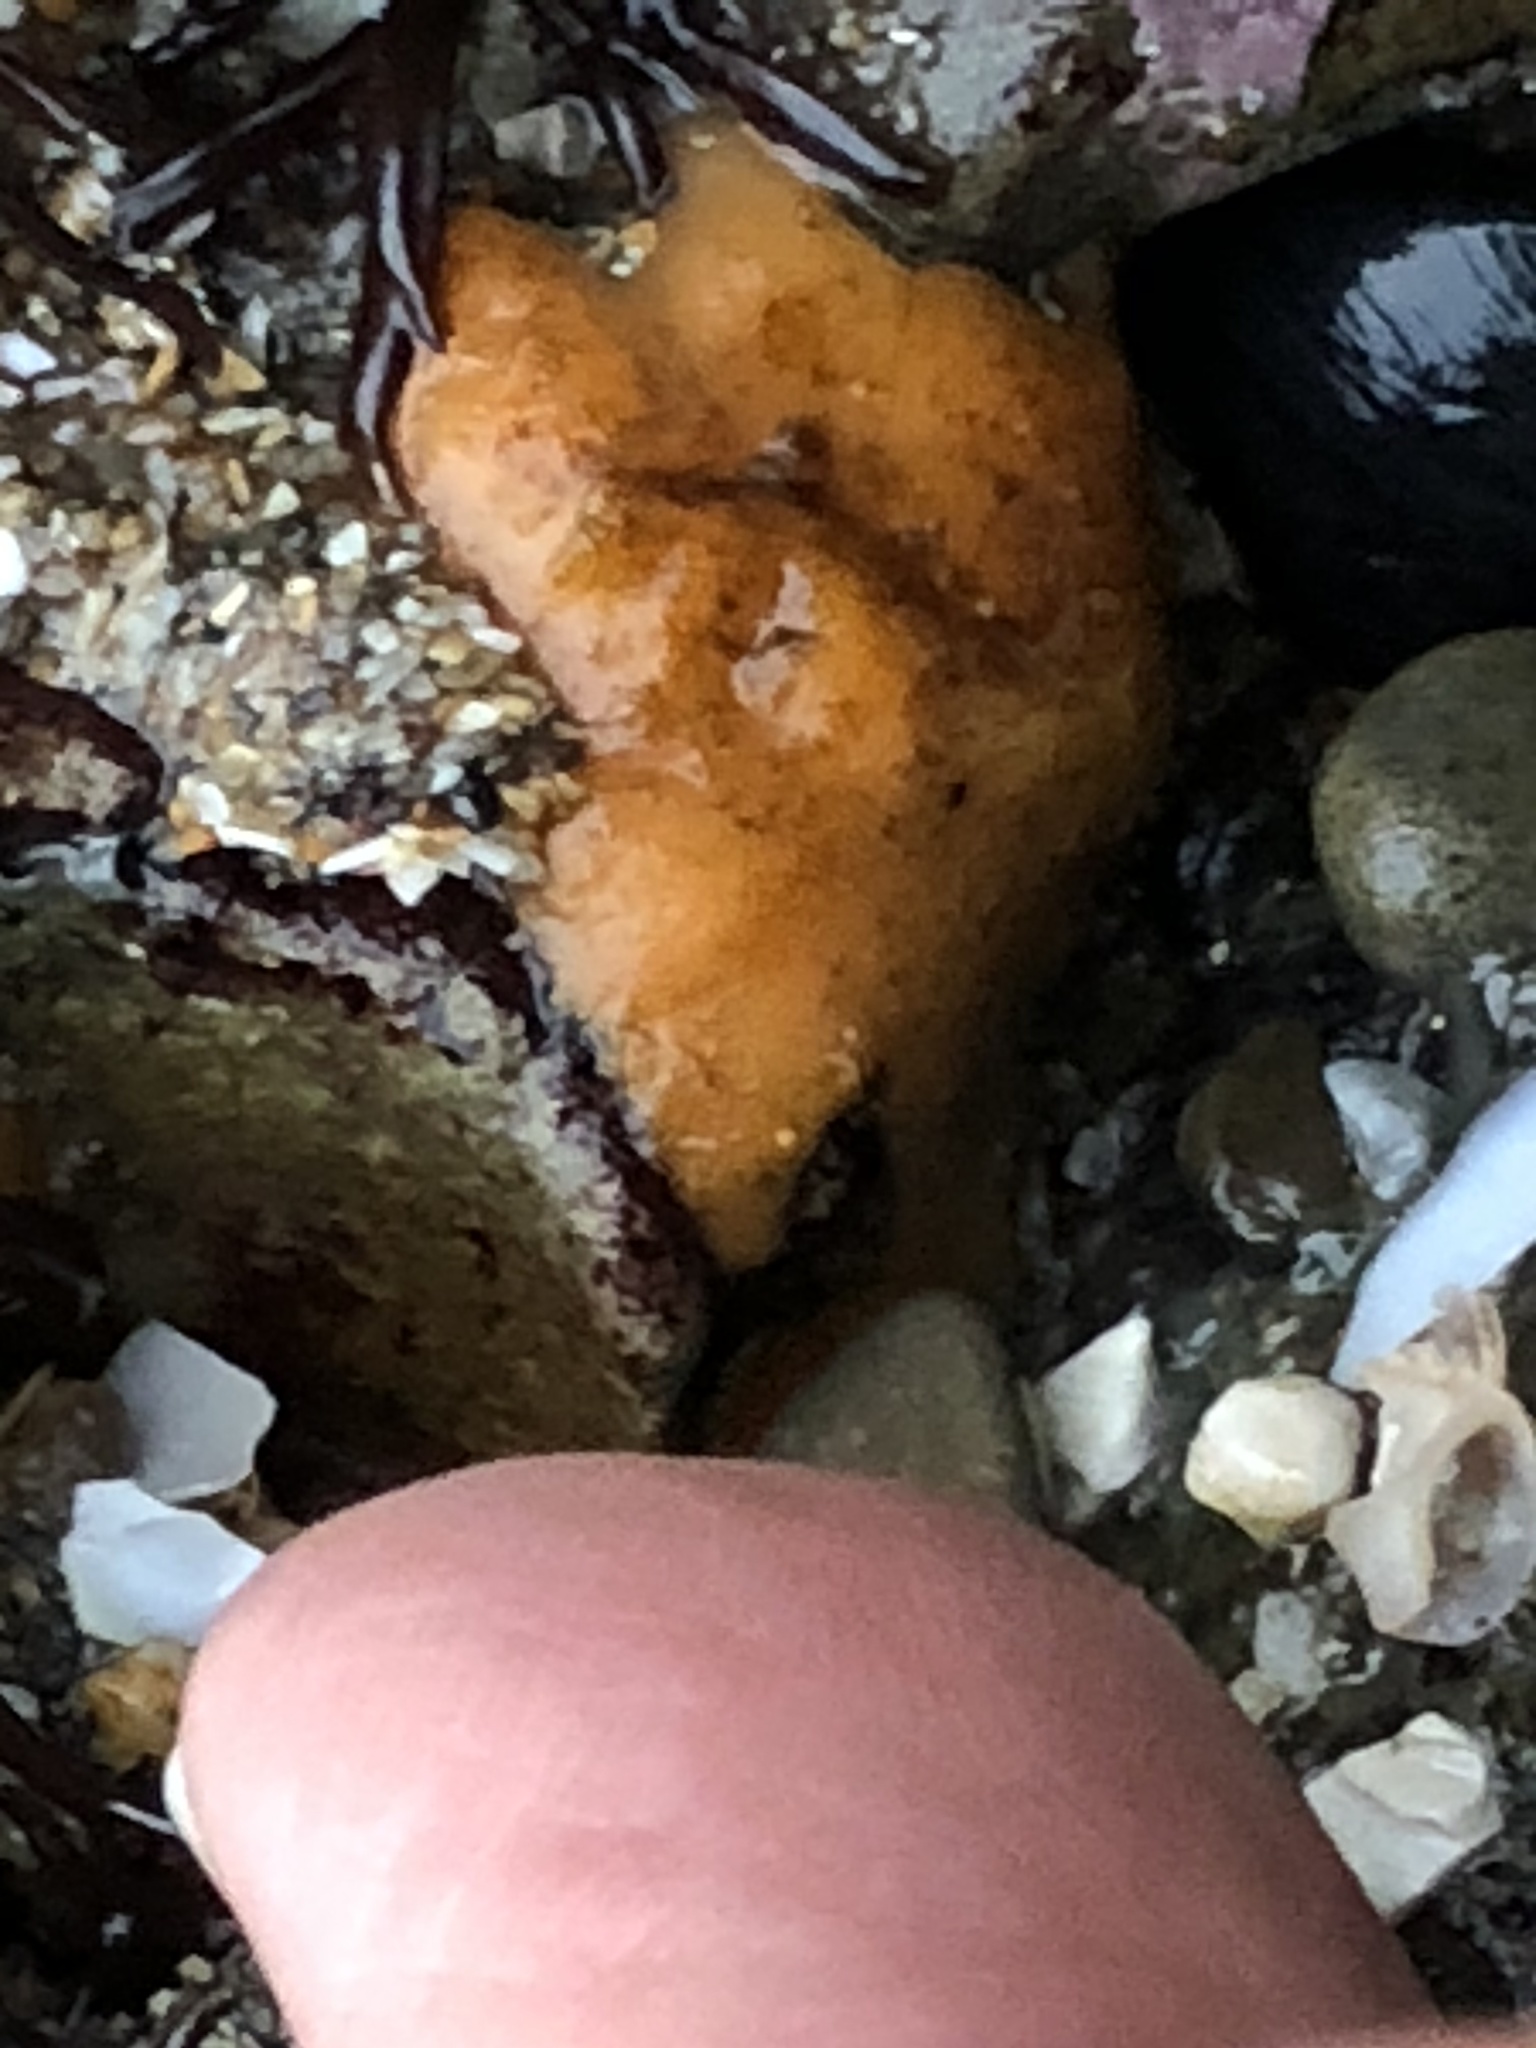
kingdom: Animalia
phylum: Porifera
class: Demospongiae
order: Suberitida
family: Suberitidae
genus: Suberites
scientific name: Suberites lambei
